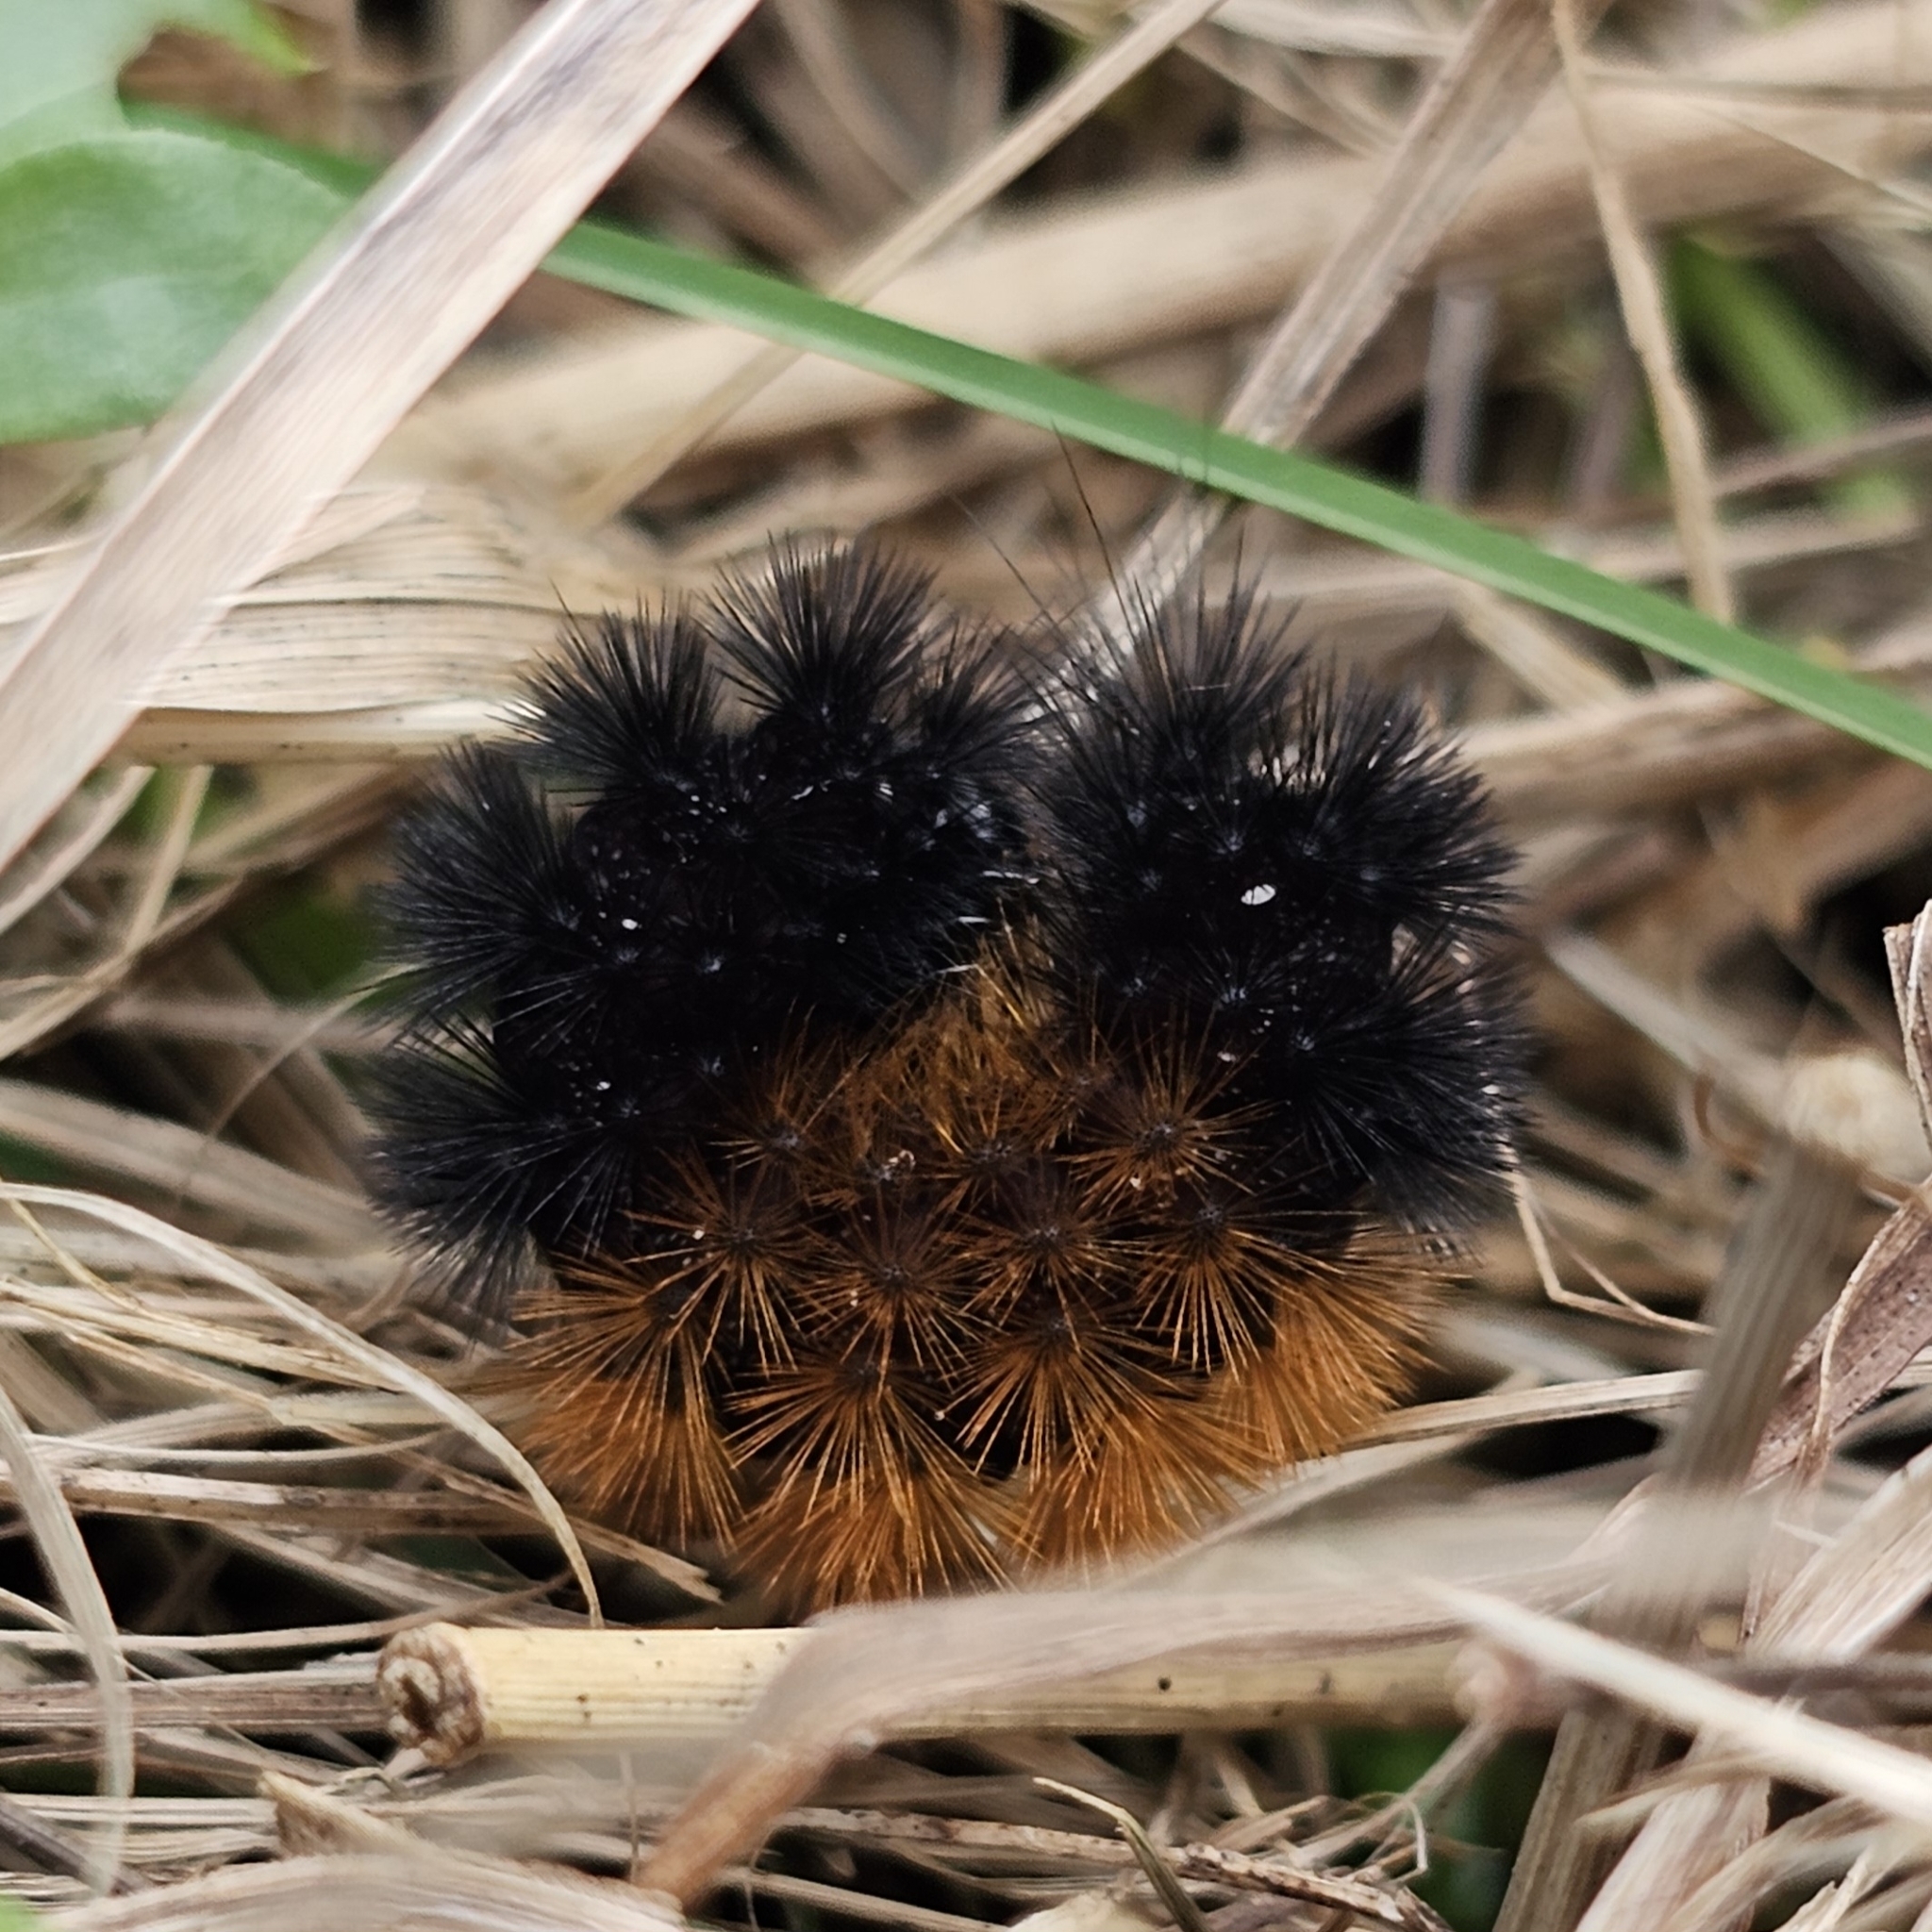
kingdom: Animalia
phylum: Arthropoda
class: Insecta
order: Lepidoptera
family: Erebidae
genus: Pyrrharctia
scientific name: Pyrrharctia isabella
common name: Isabella tiger moth
